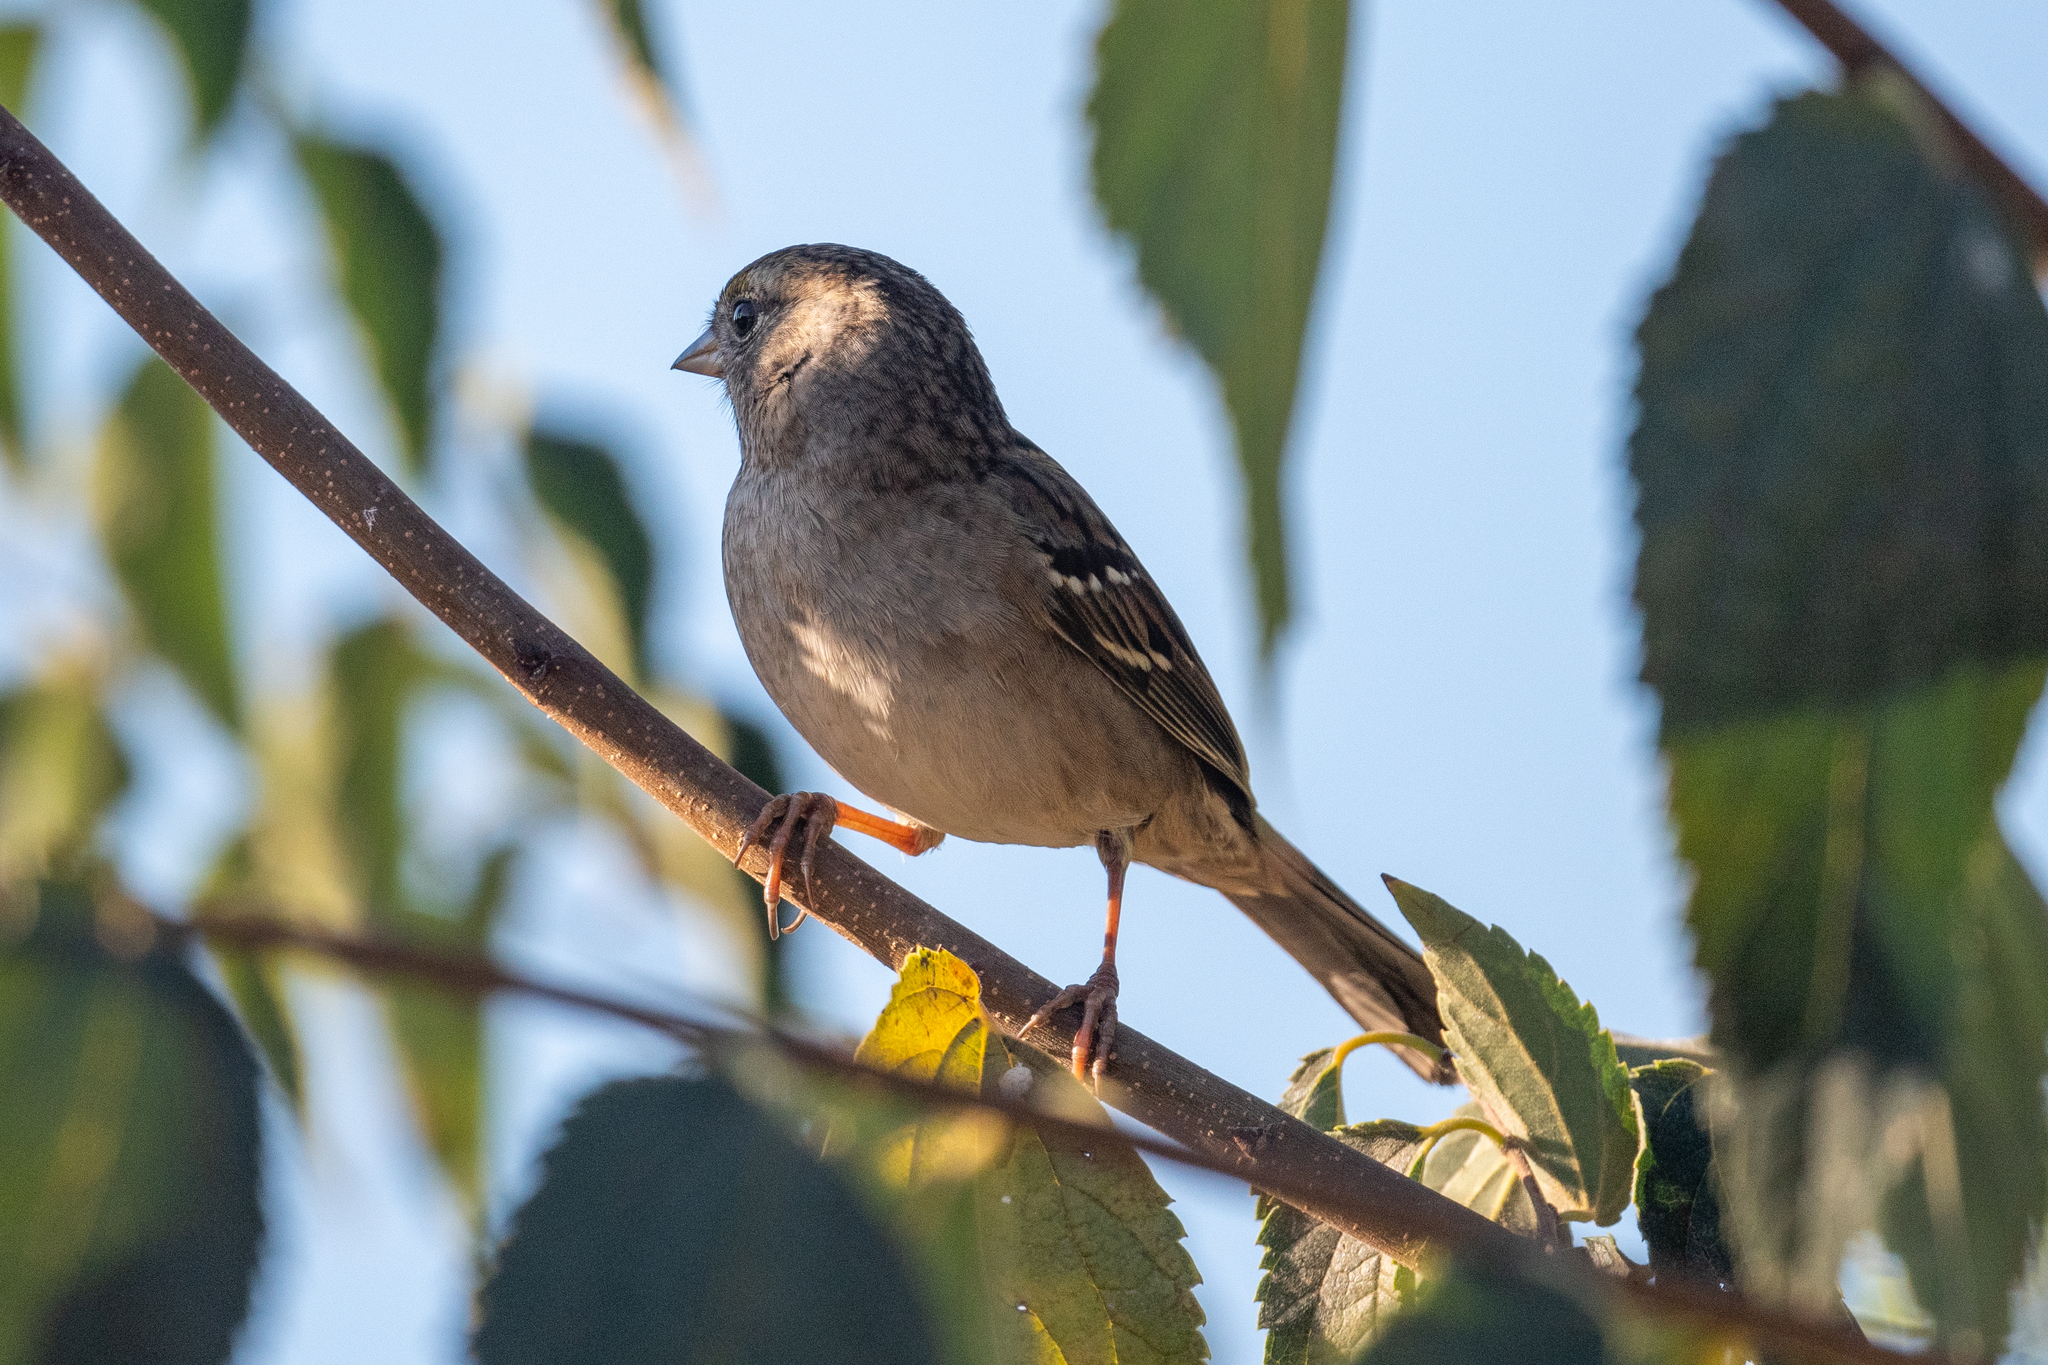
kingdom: Animalia
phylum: Chordata
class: Aves
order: Passeriformes
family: Passerellidae
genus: Zonotrichia
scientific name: Zonotrichia atricapilla
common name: Golden-crowned sparrow
